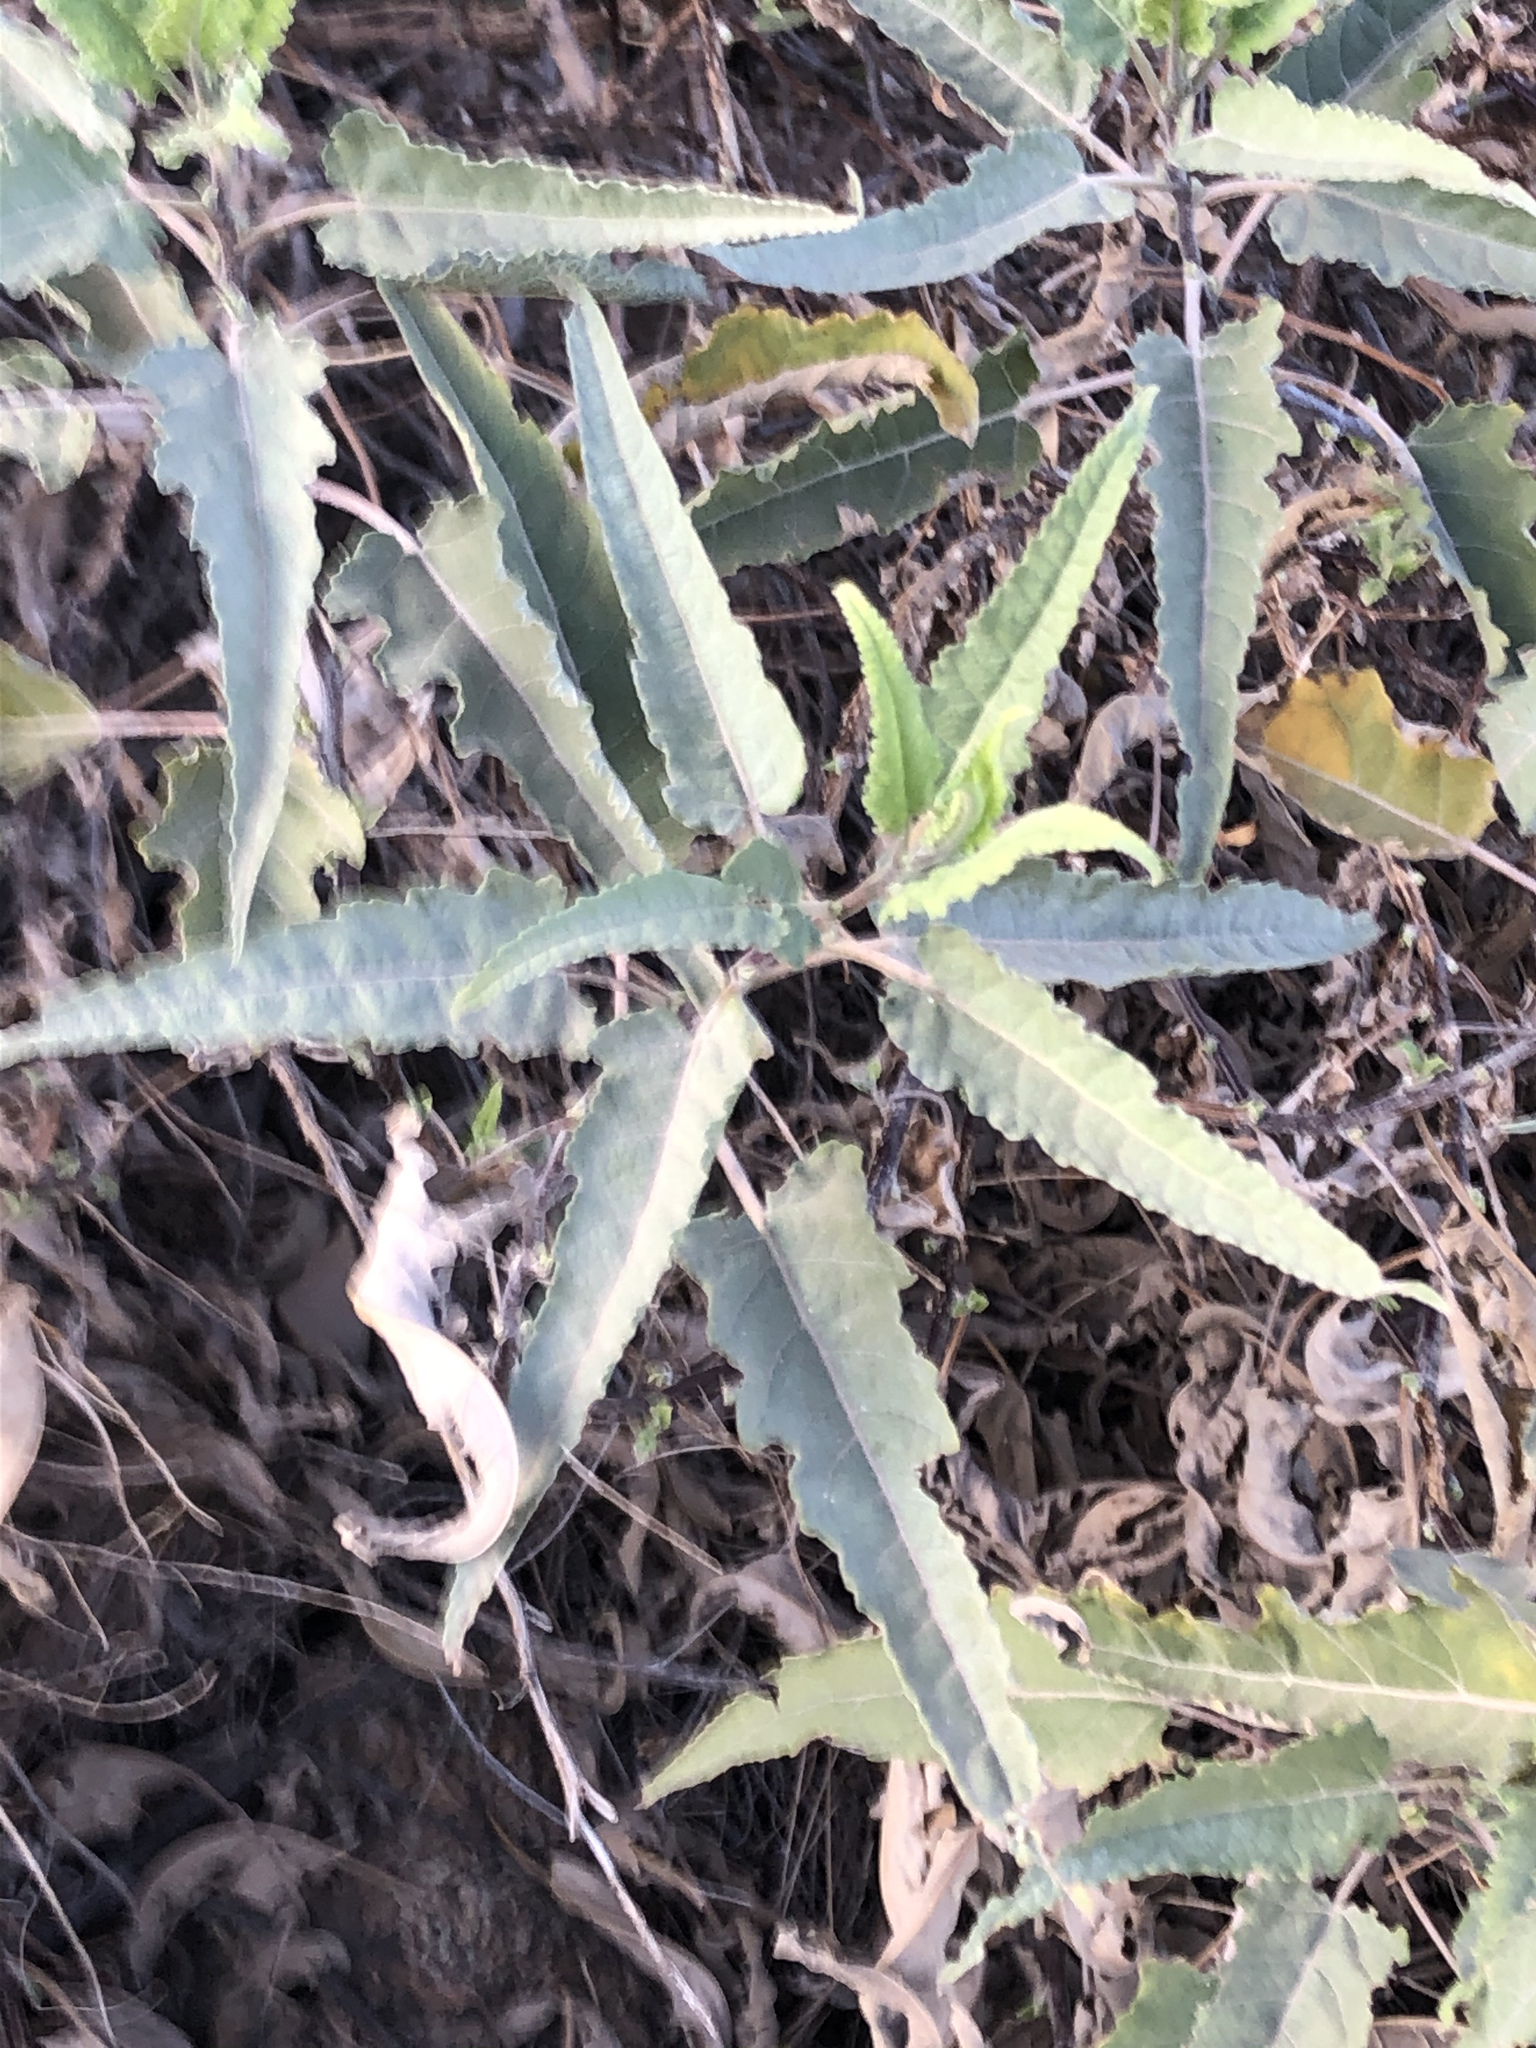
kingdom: Plantae
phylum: Tracheophyta
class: Magnoliopsida
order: Asterales
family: Asteraceae
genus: Ambrosia
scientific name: Ambrosia ambrosioides
